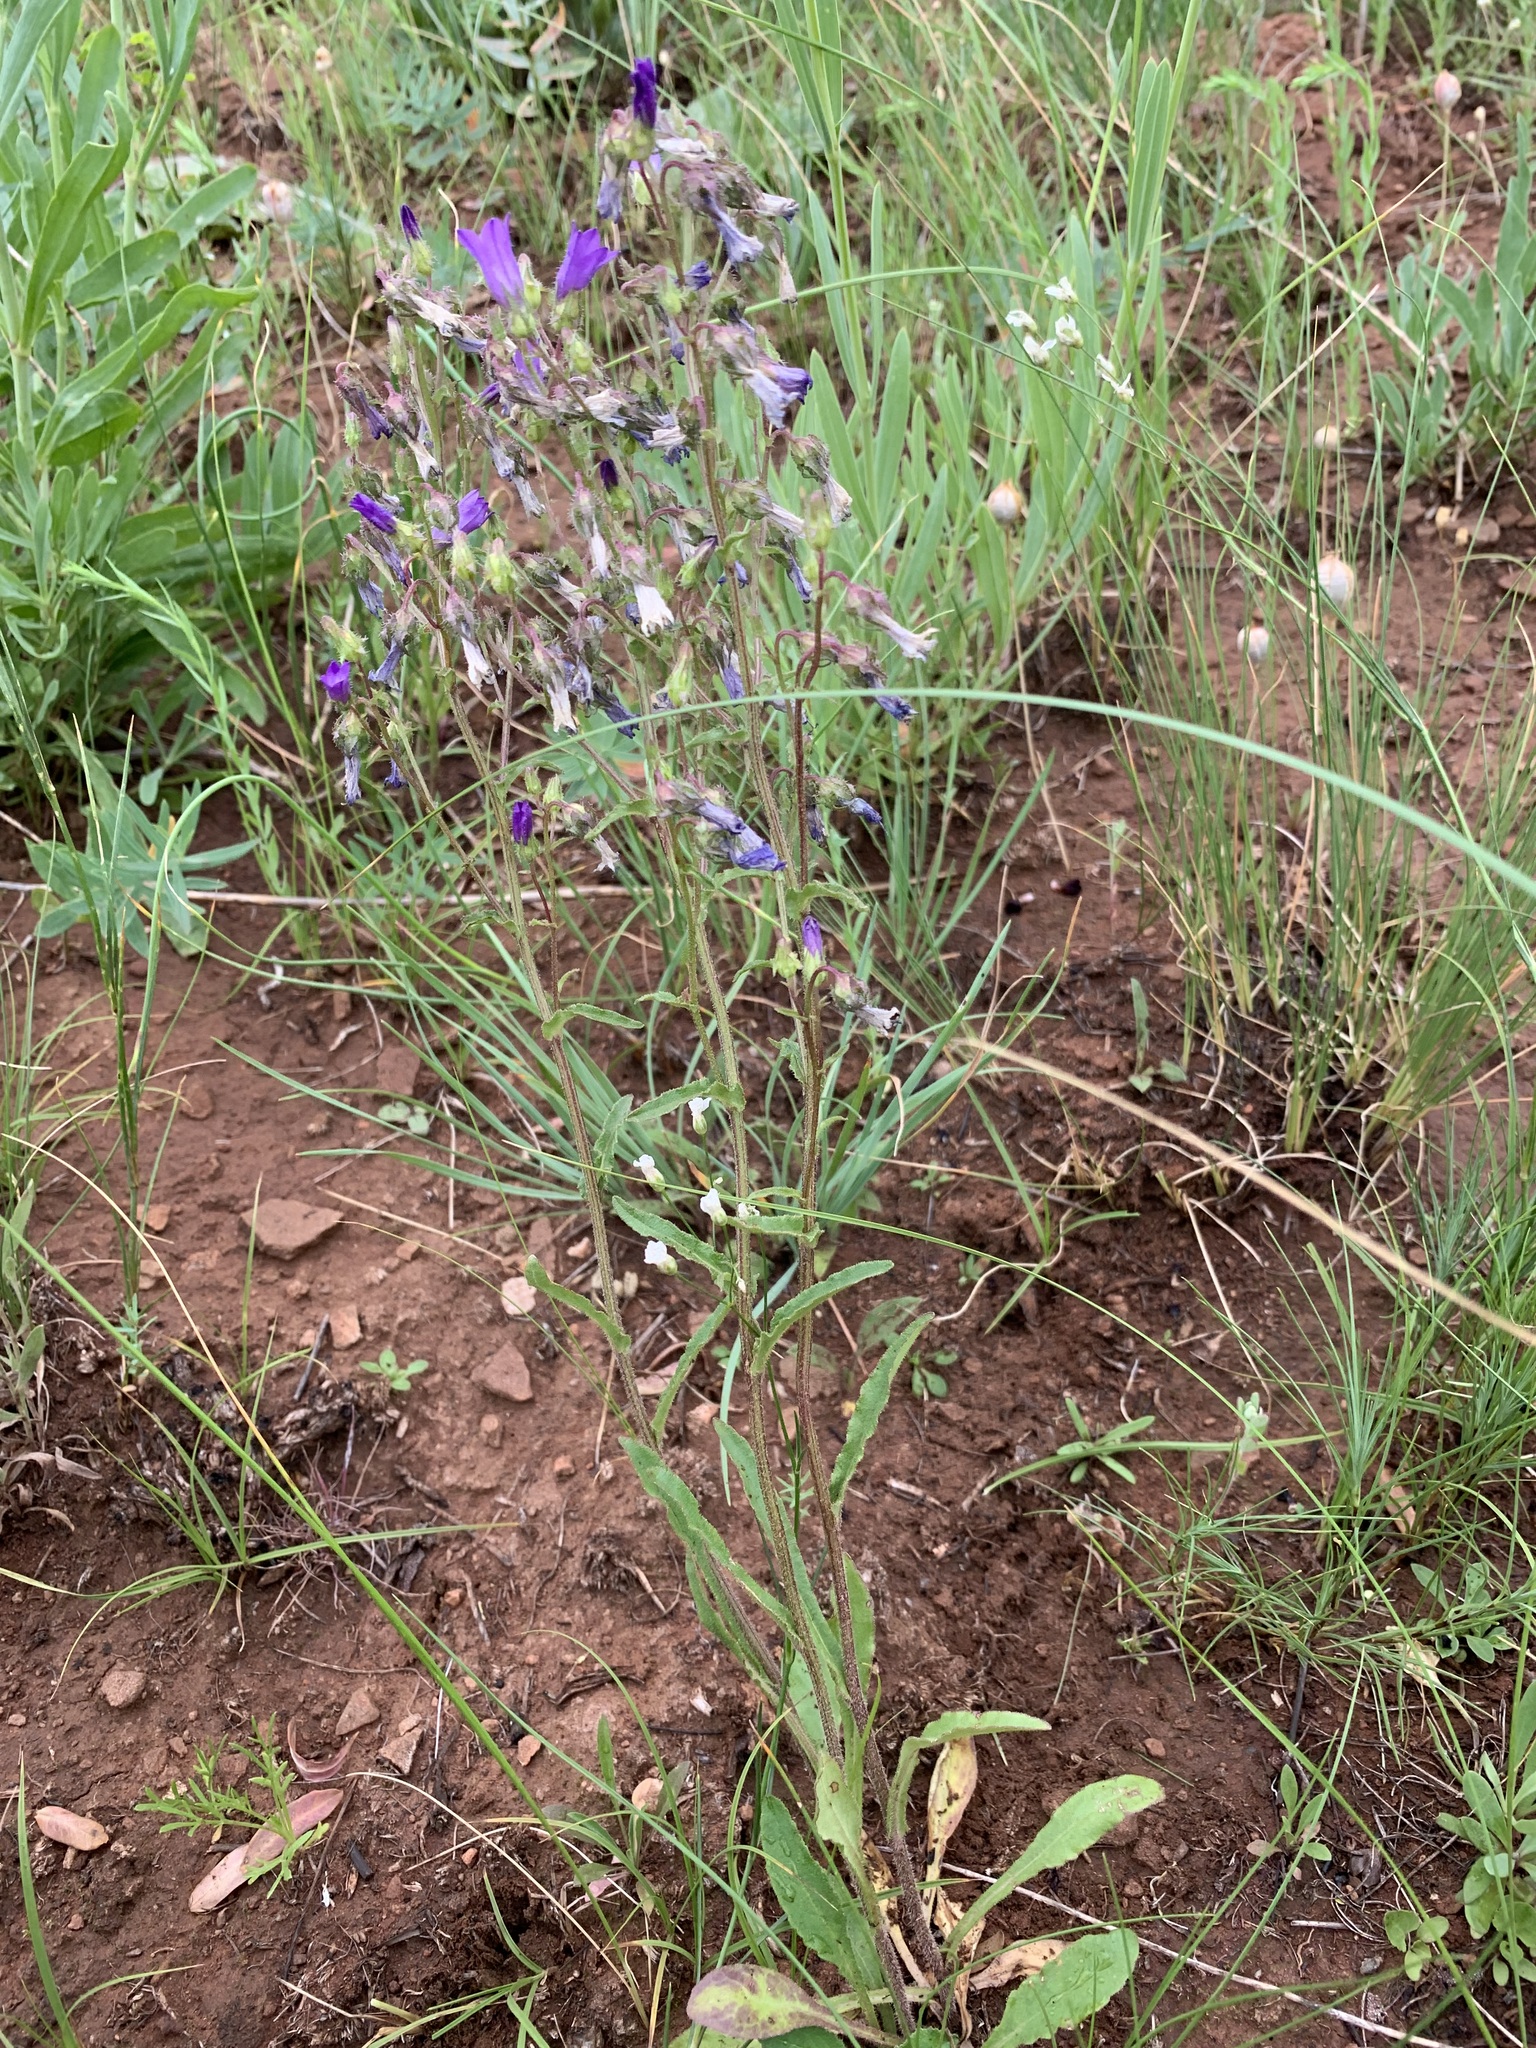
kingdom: Plantae
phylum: Tracheophyta
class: Magnoliopsida
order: Asterales
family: Campanulaceae
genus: Campanula
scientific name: Campanula sibirica
